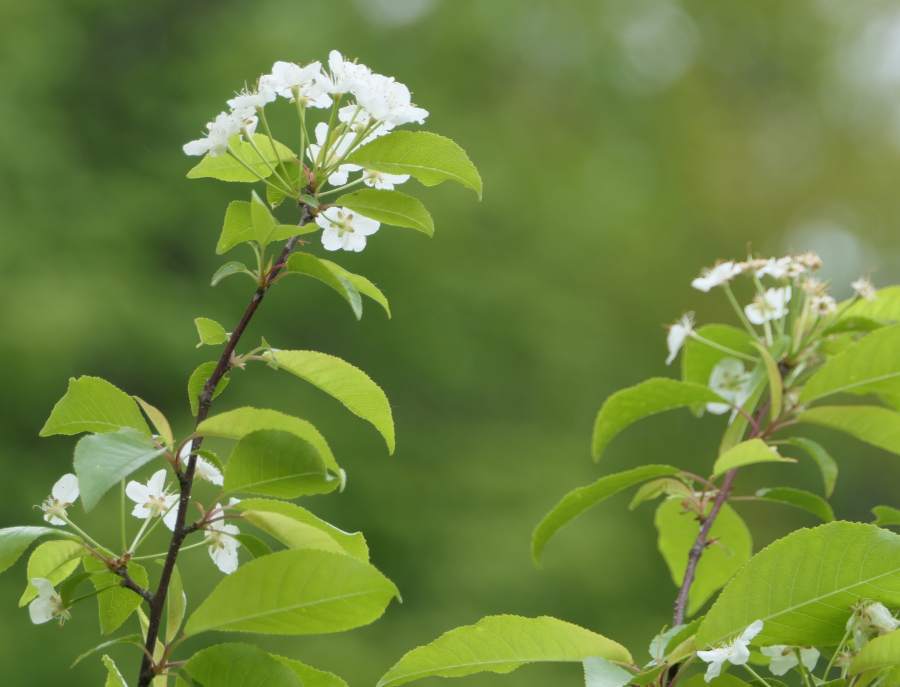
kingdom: Plantae
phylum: Tracheophyta
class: Magnoliopsida
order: Rosales
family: Rosaceae
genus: Prunus
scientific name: Prunus pensylvanica
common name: Pin cherry
